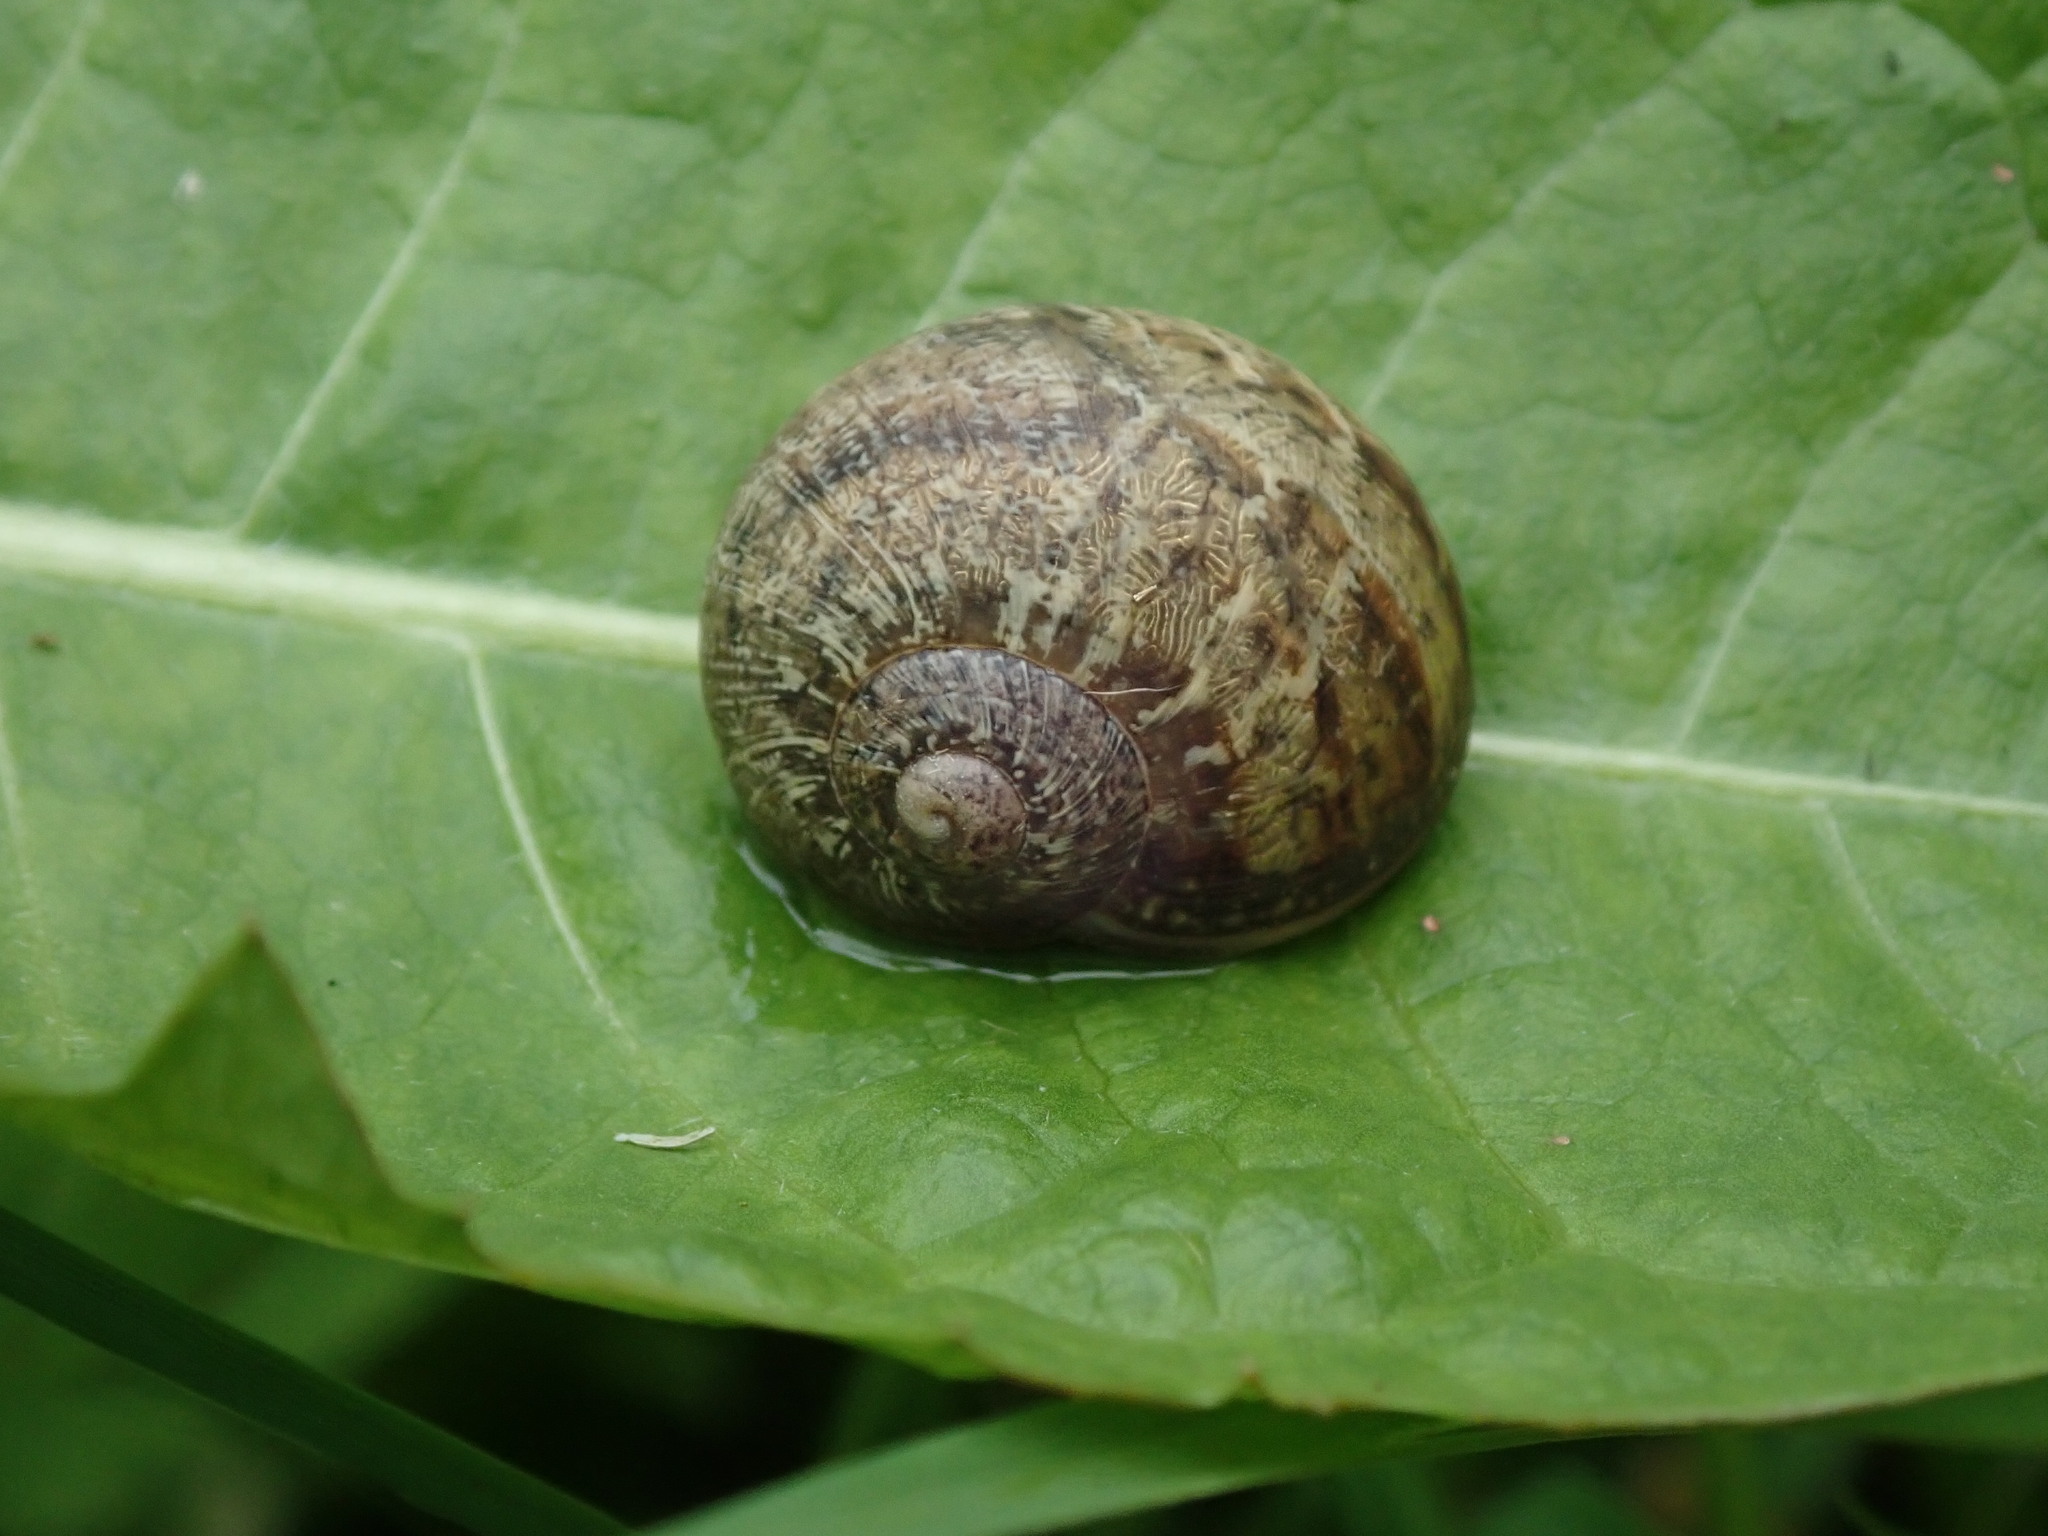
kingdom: Animalia
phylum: Mollusca
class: Gastropoda
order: Stylommatophora
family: Helicidae
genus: Cornu
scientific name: Cornu aspersum
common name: Brown garden snail
